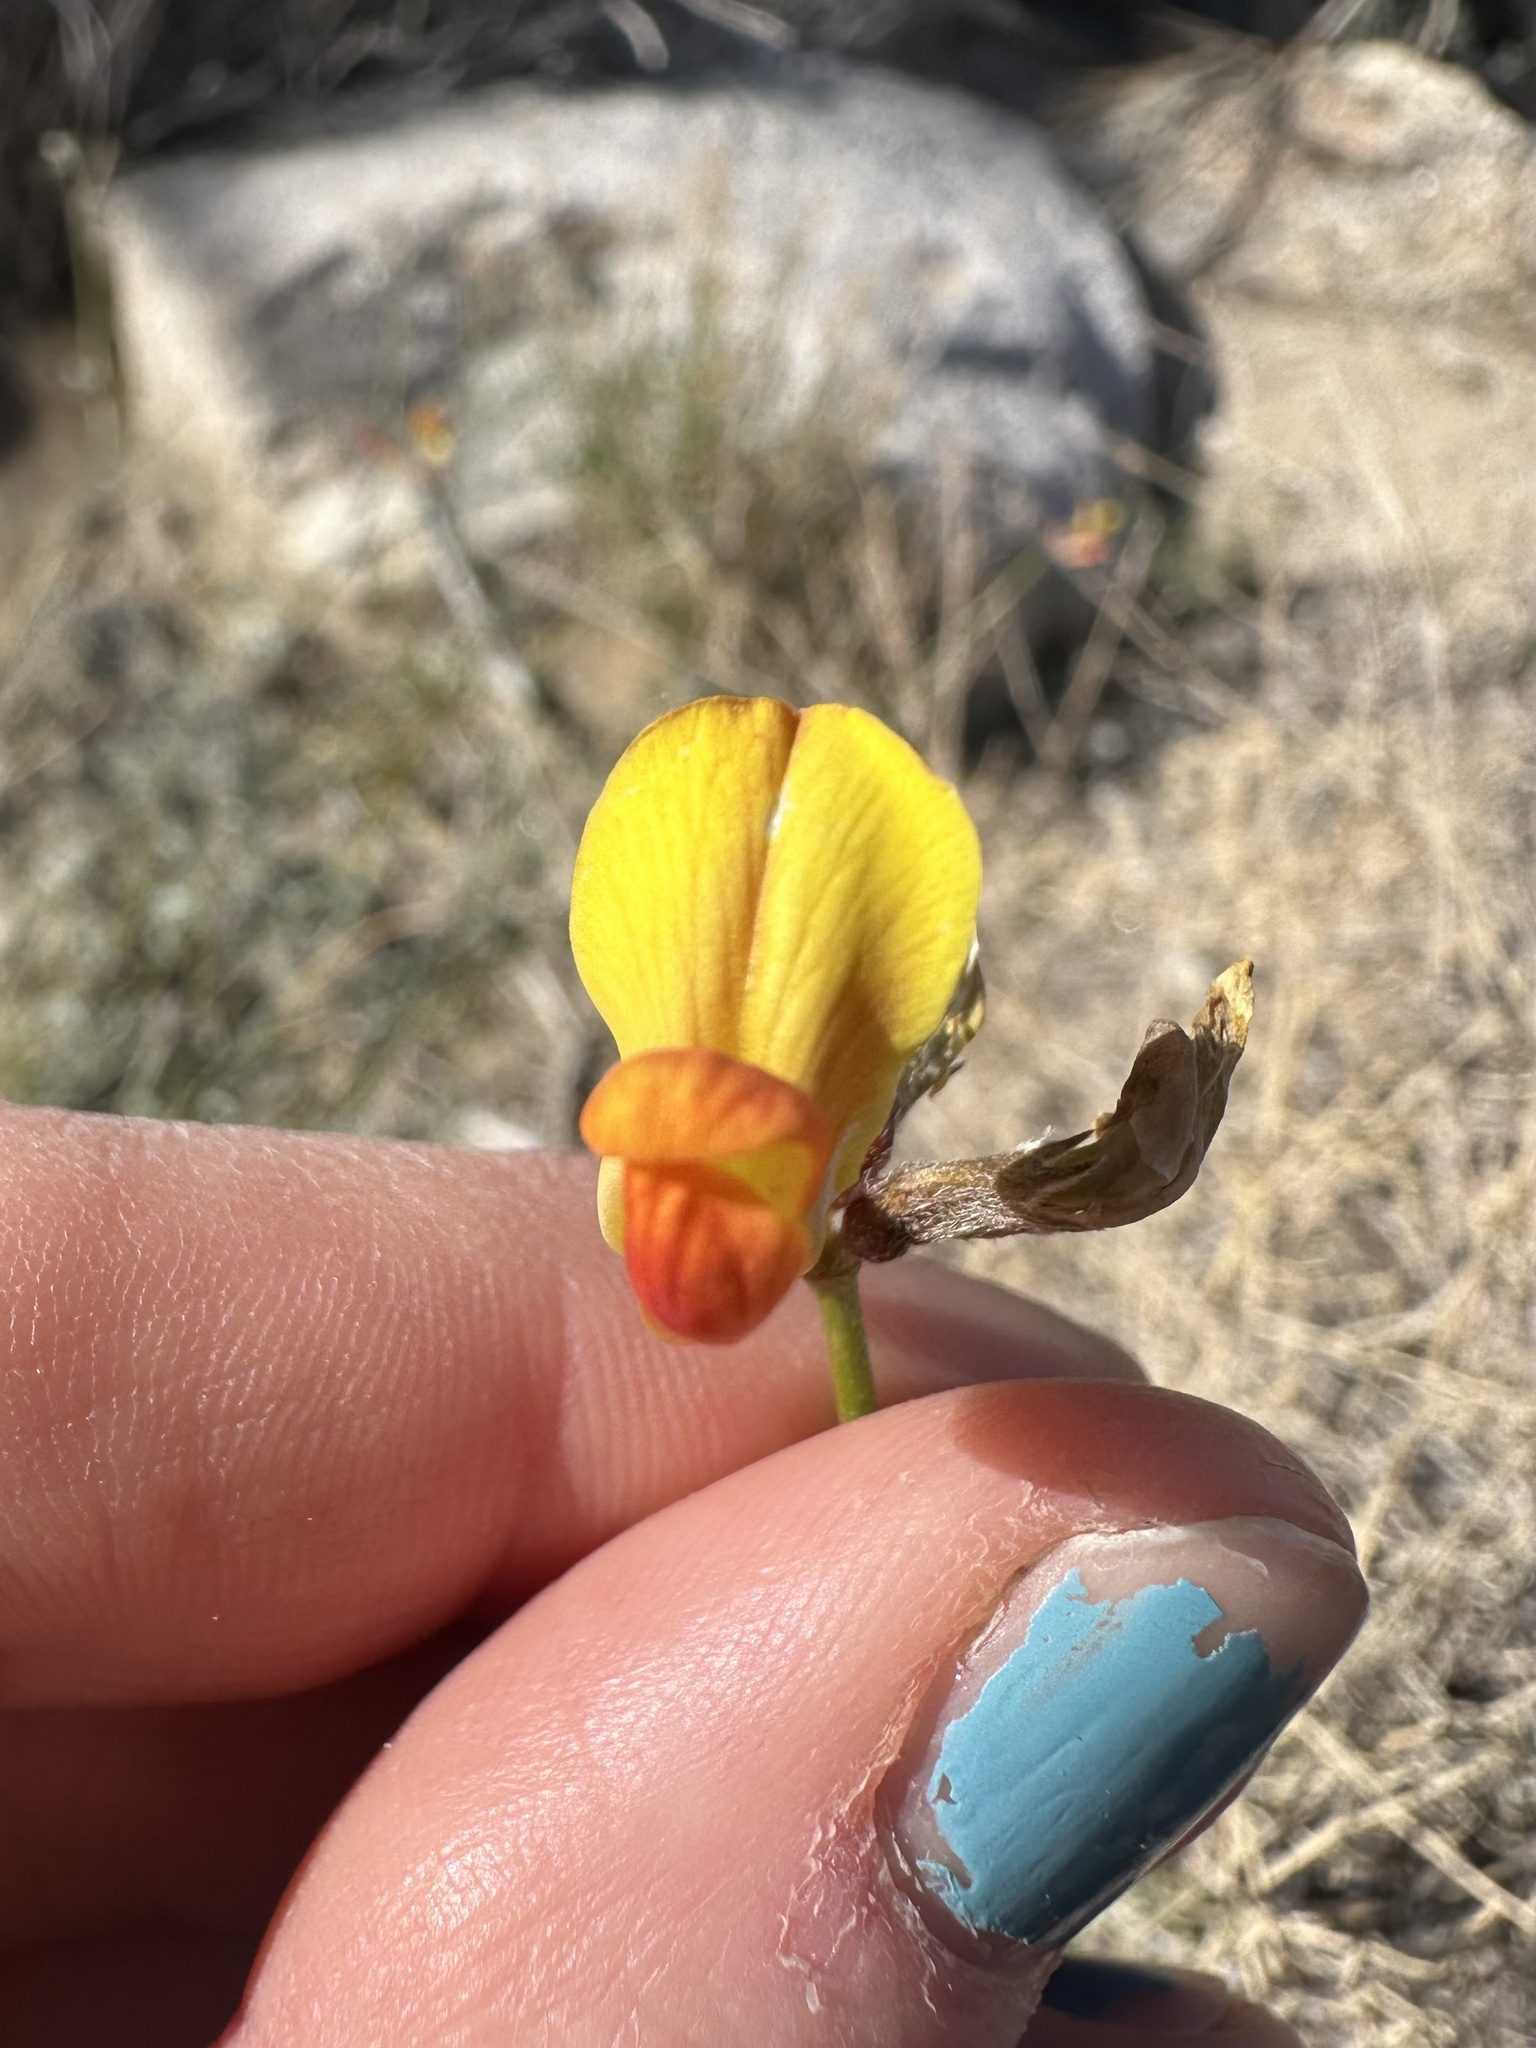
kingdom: Plantae
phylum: Tracheophyta
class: Magnoliopsida
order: Fabales
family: Fabaceae
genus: Acmispon
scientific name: Acmispon rigidus
